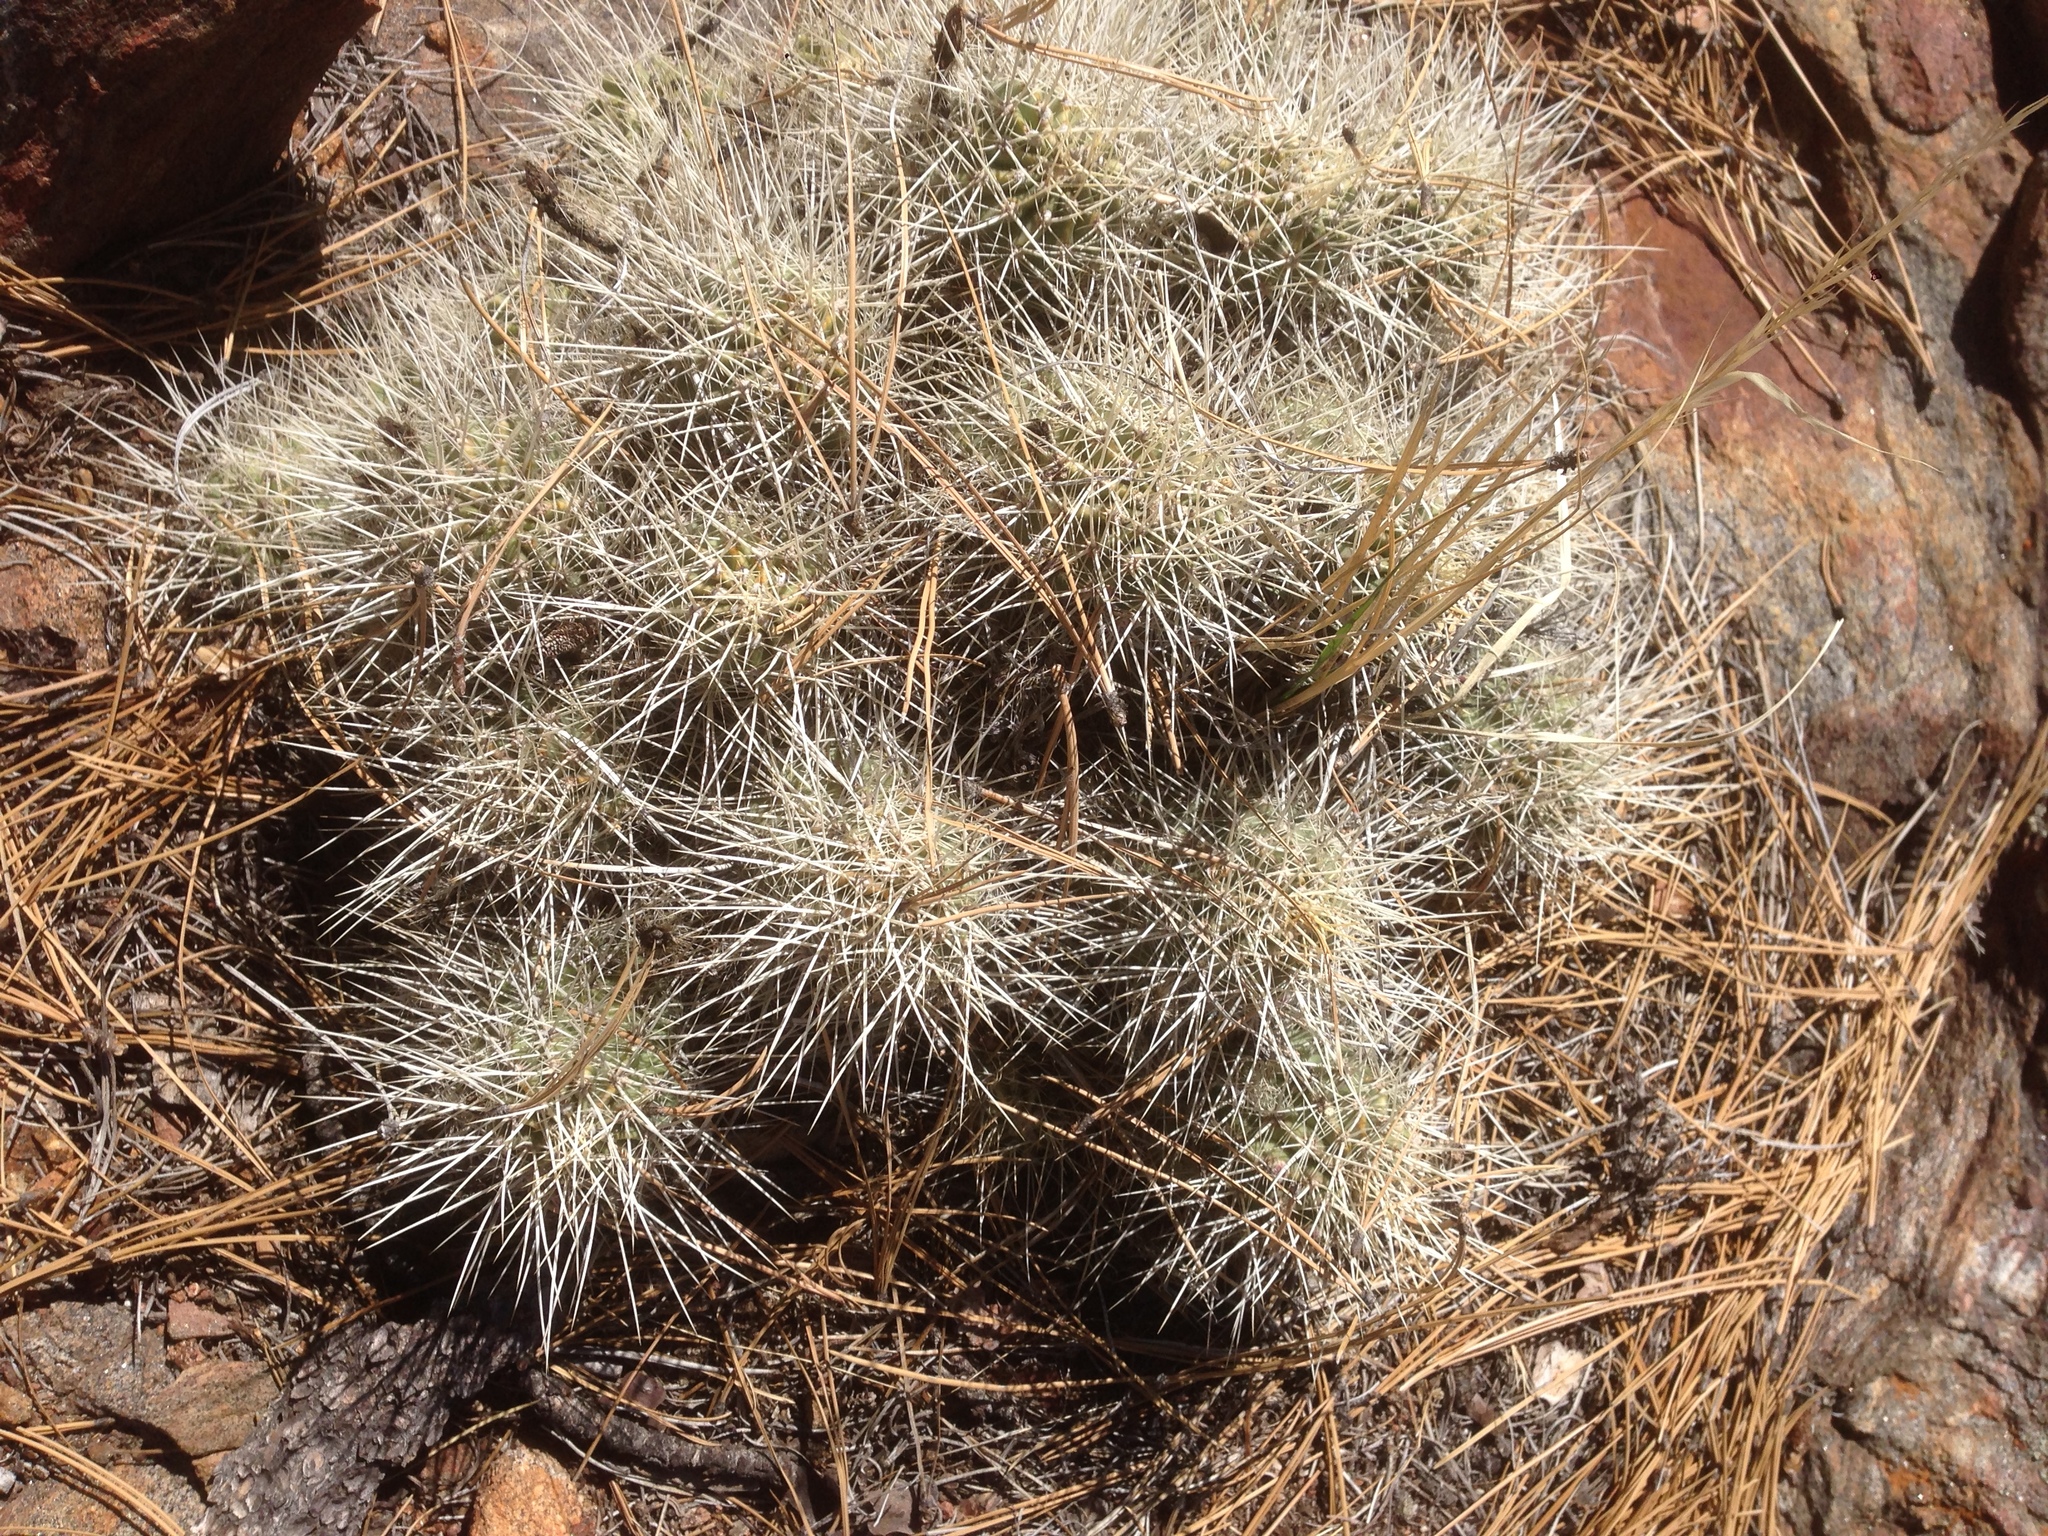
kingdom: Plantae
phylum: Tracheophyta
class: Magnoliopsida
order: Caryophyllales
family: Cactaceae
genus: Echinocereus
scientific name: Echinocereus pacificus
